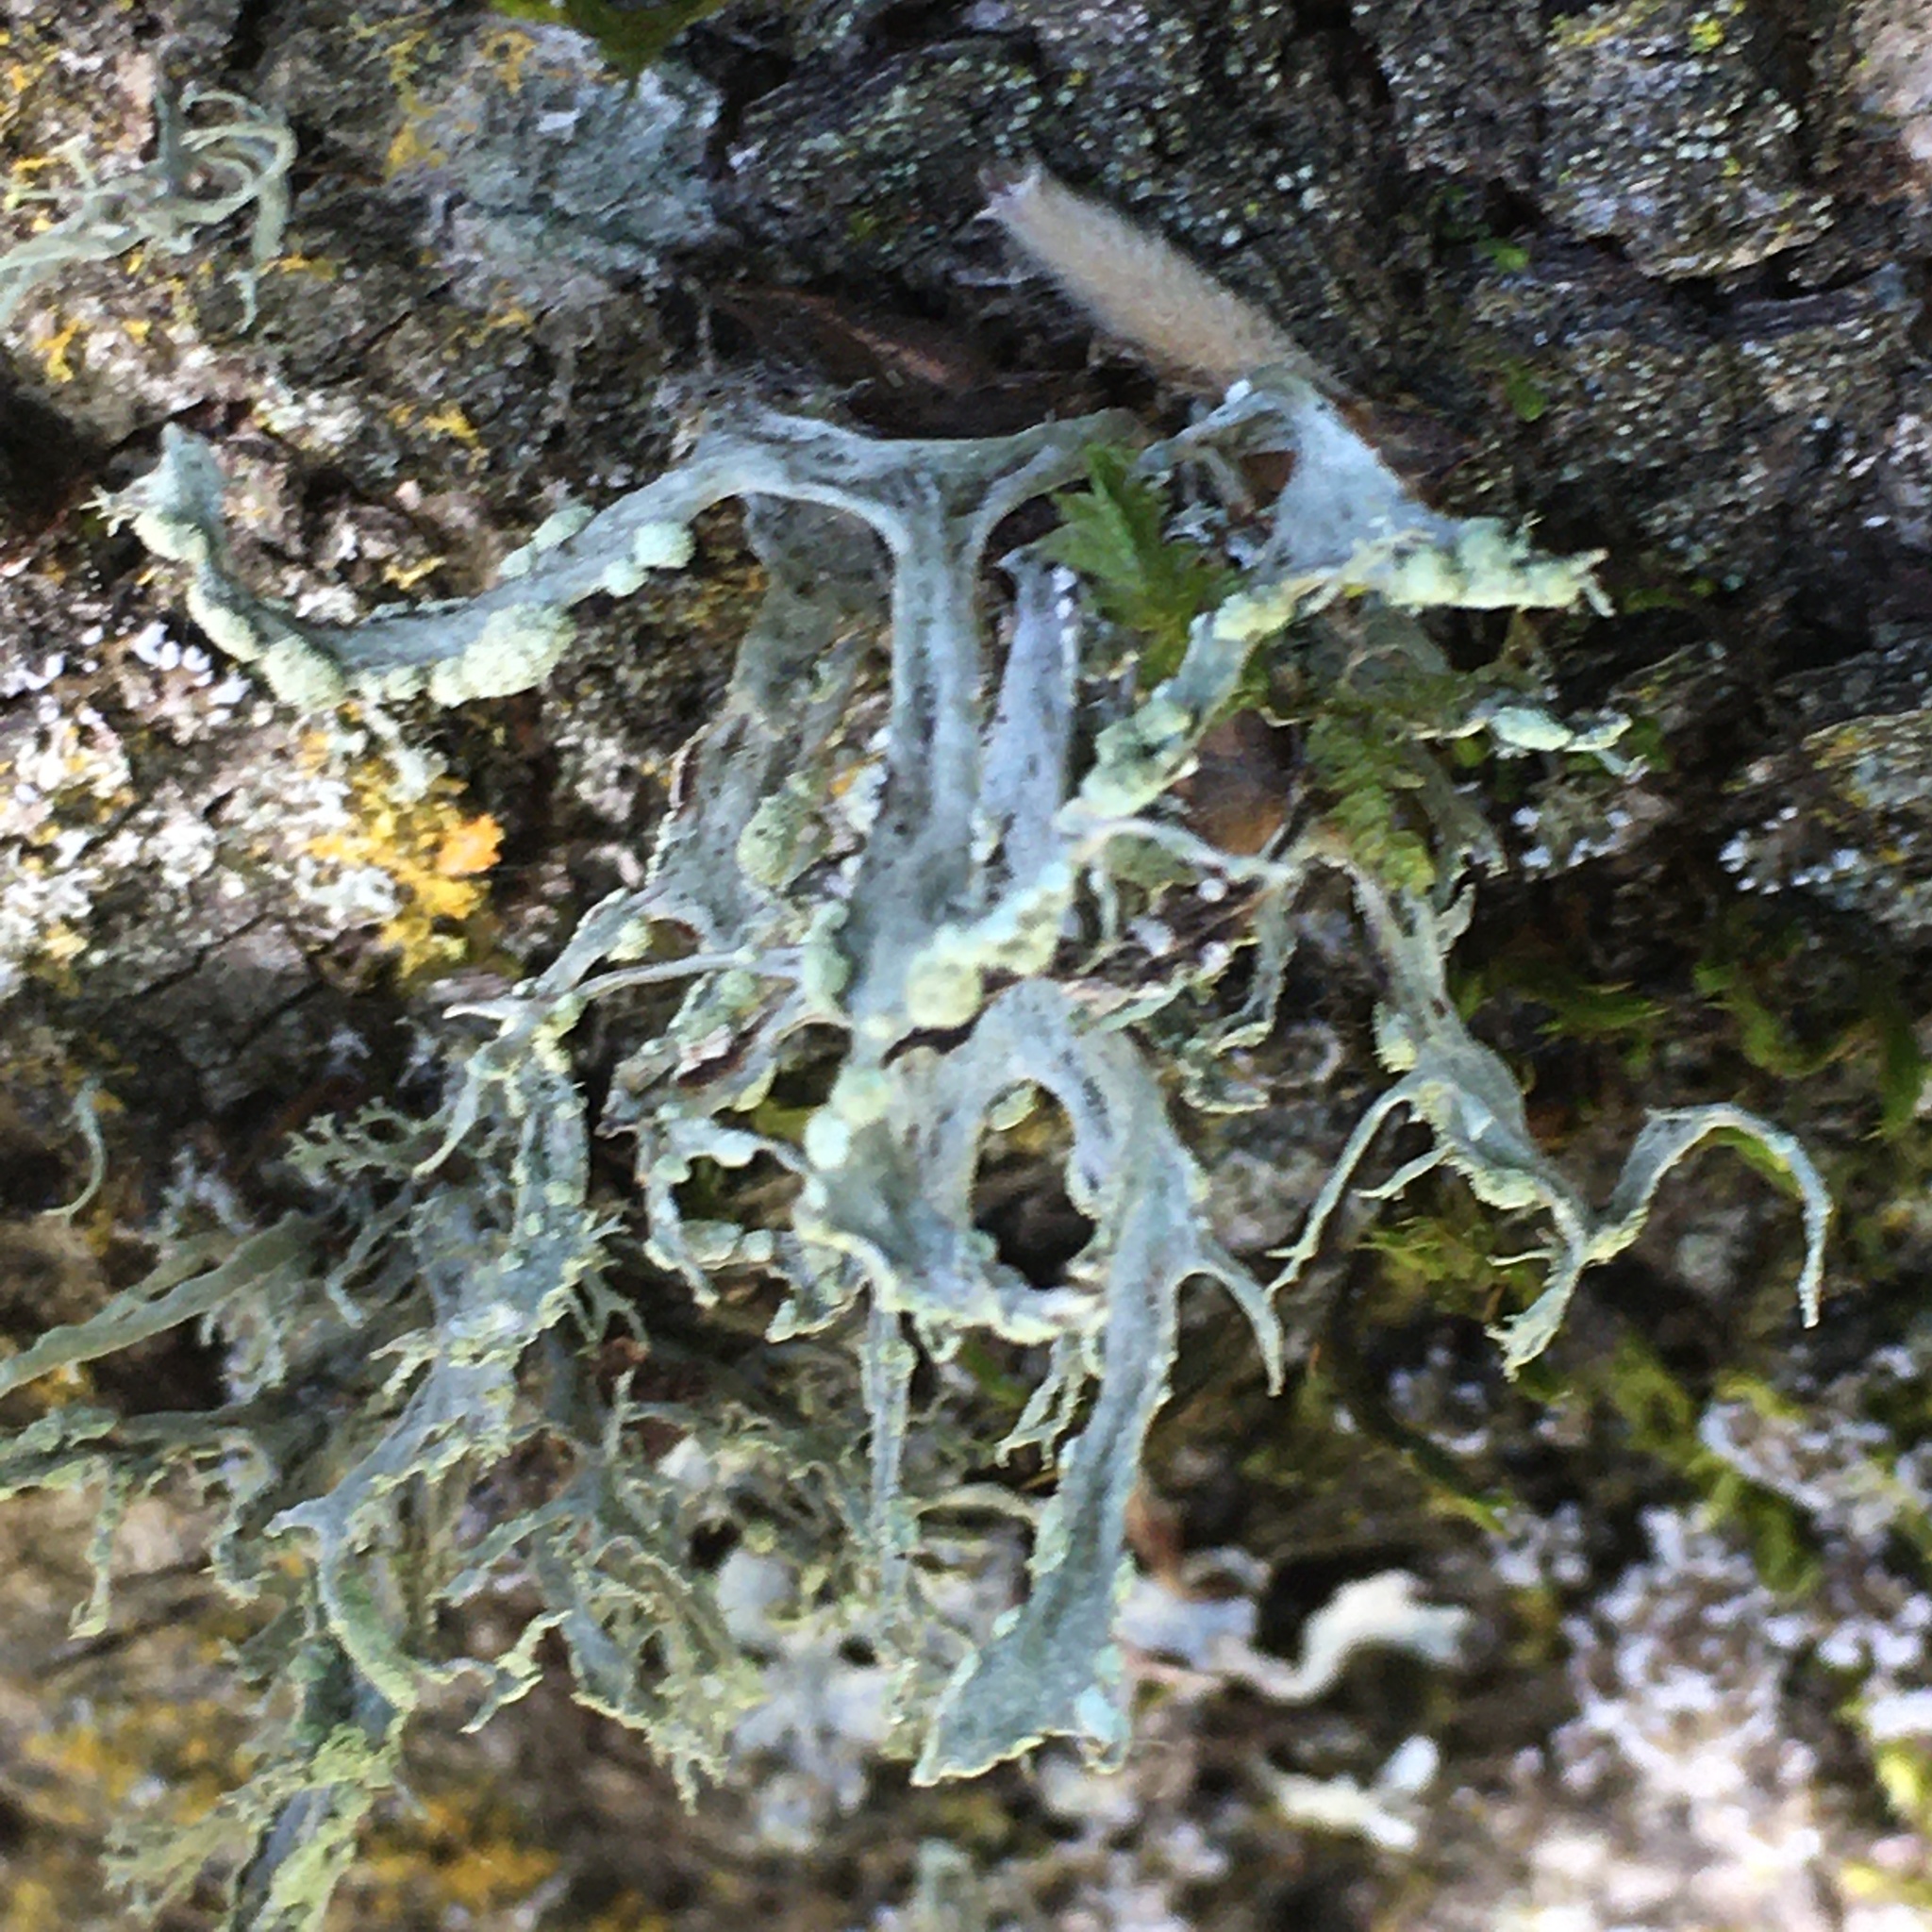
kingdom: Fungi
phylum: Ascomycota
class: Lecanoromycetes
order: Lecanorales
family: Parmeliaceae
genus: Evernia
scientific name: Evernia prunastri
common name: Oak moss
